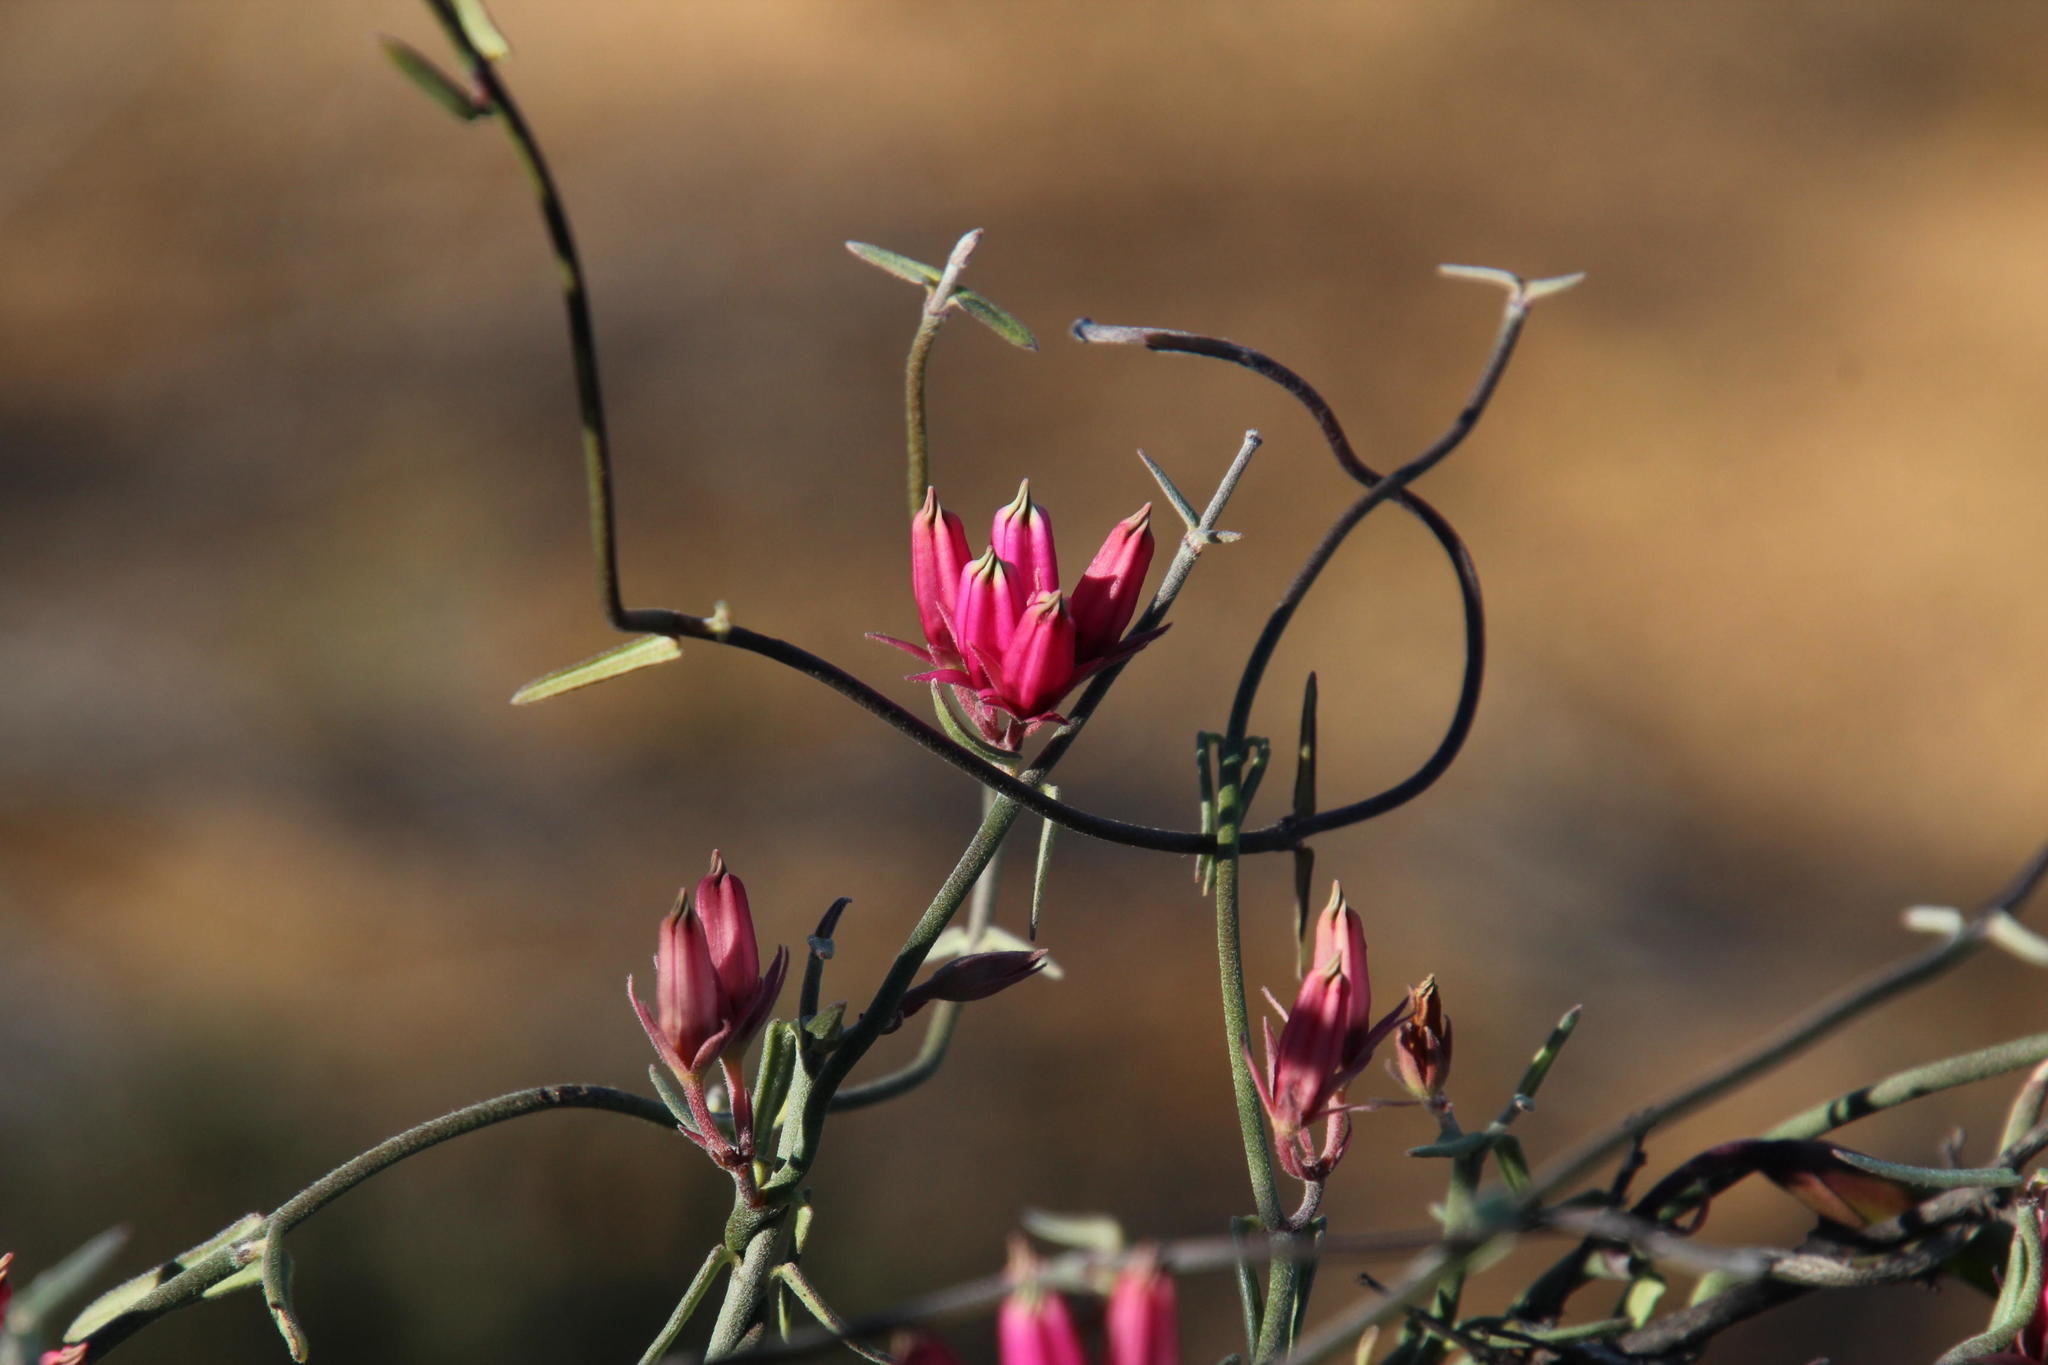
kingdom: Plantae
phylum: Tracheophyta
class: Magnoliopsida
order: Gentianales
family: Apocynaceae
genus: Microloma
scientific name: Microloma sagittatum
